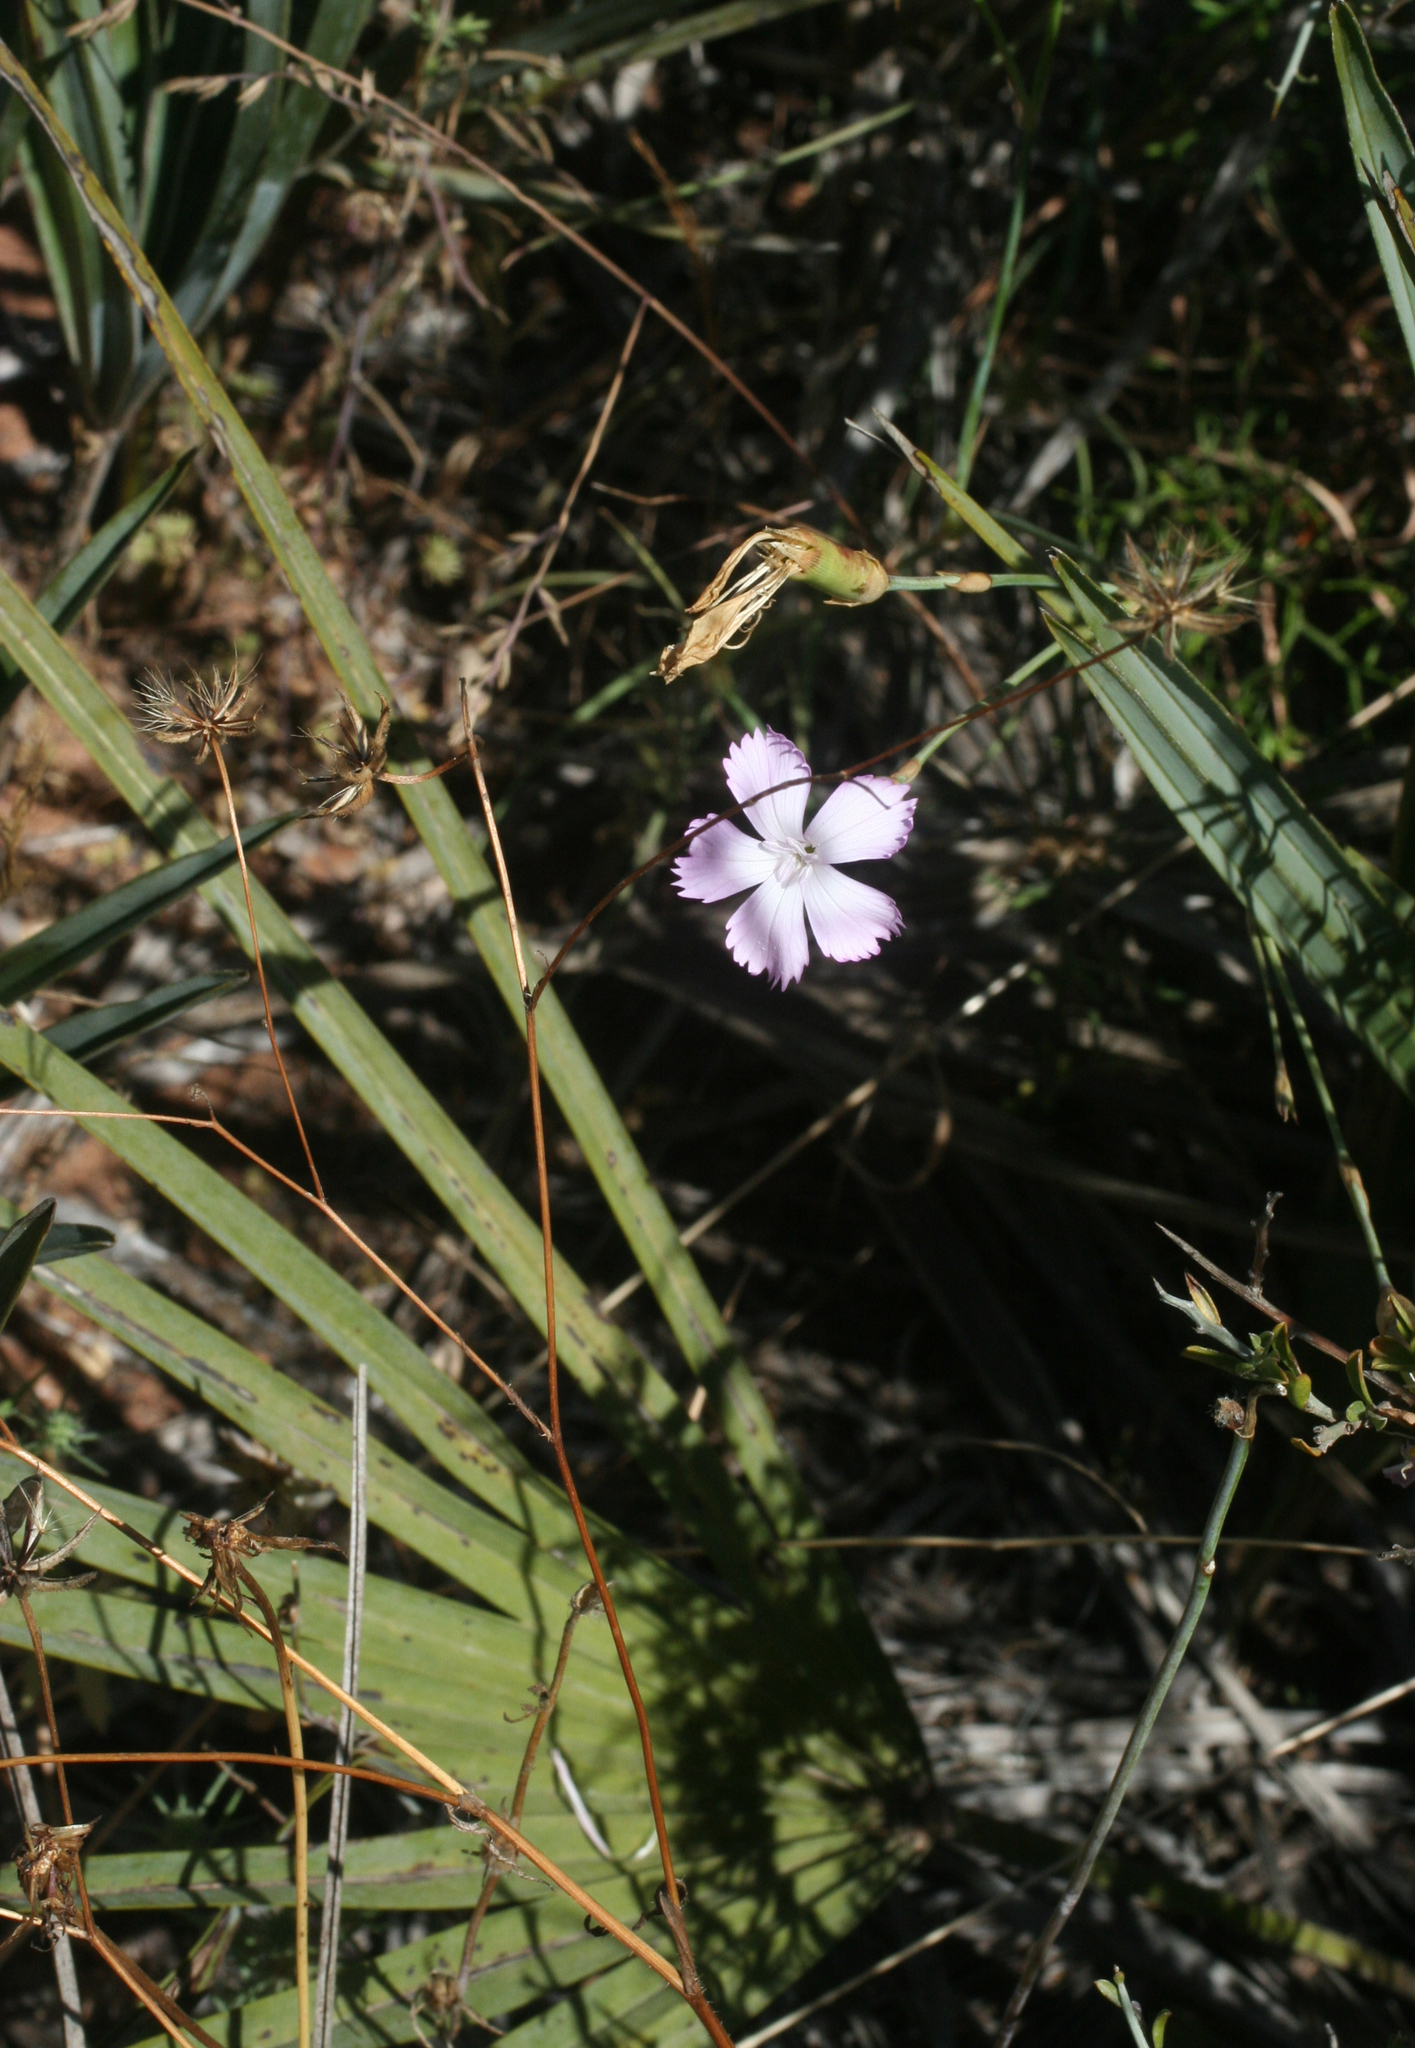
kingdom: Plantae
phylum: Tracheophyta
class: Liliopsida
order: Arecales
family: Arecaceae
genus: Chamaerops
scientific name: Chamaerops humilis
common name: Dwarf fan palm
